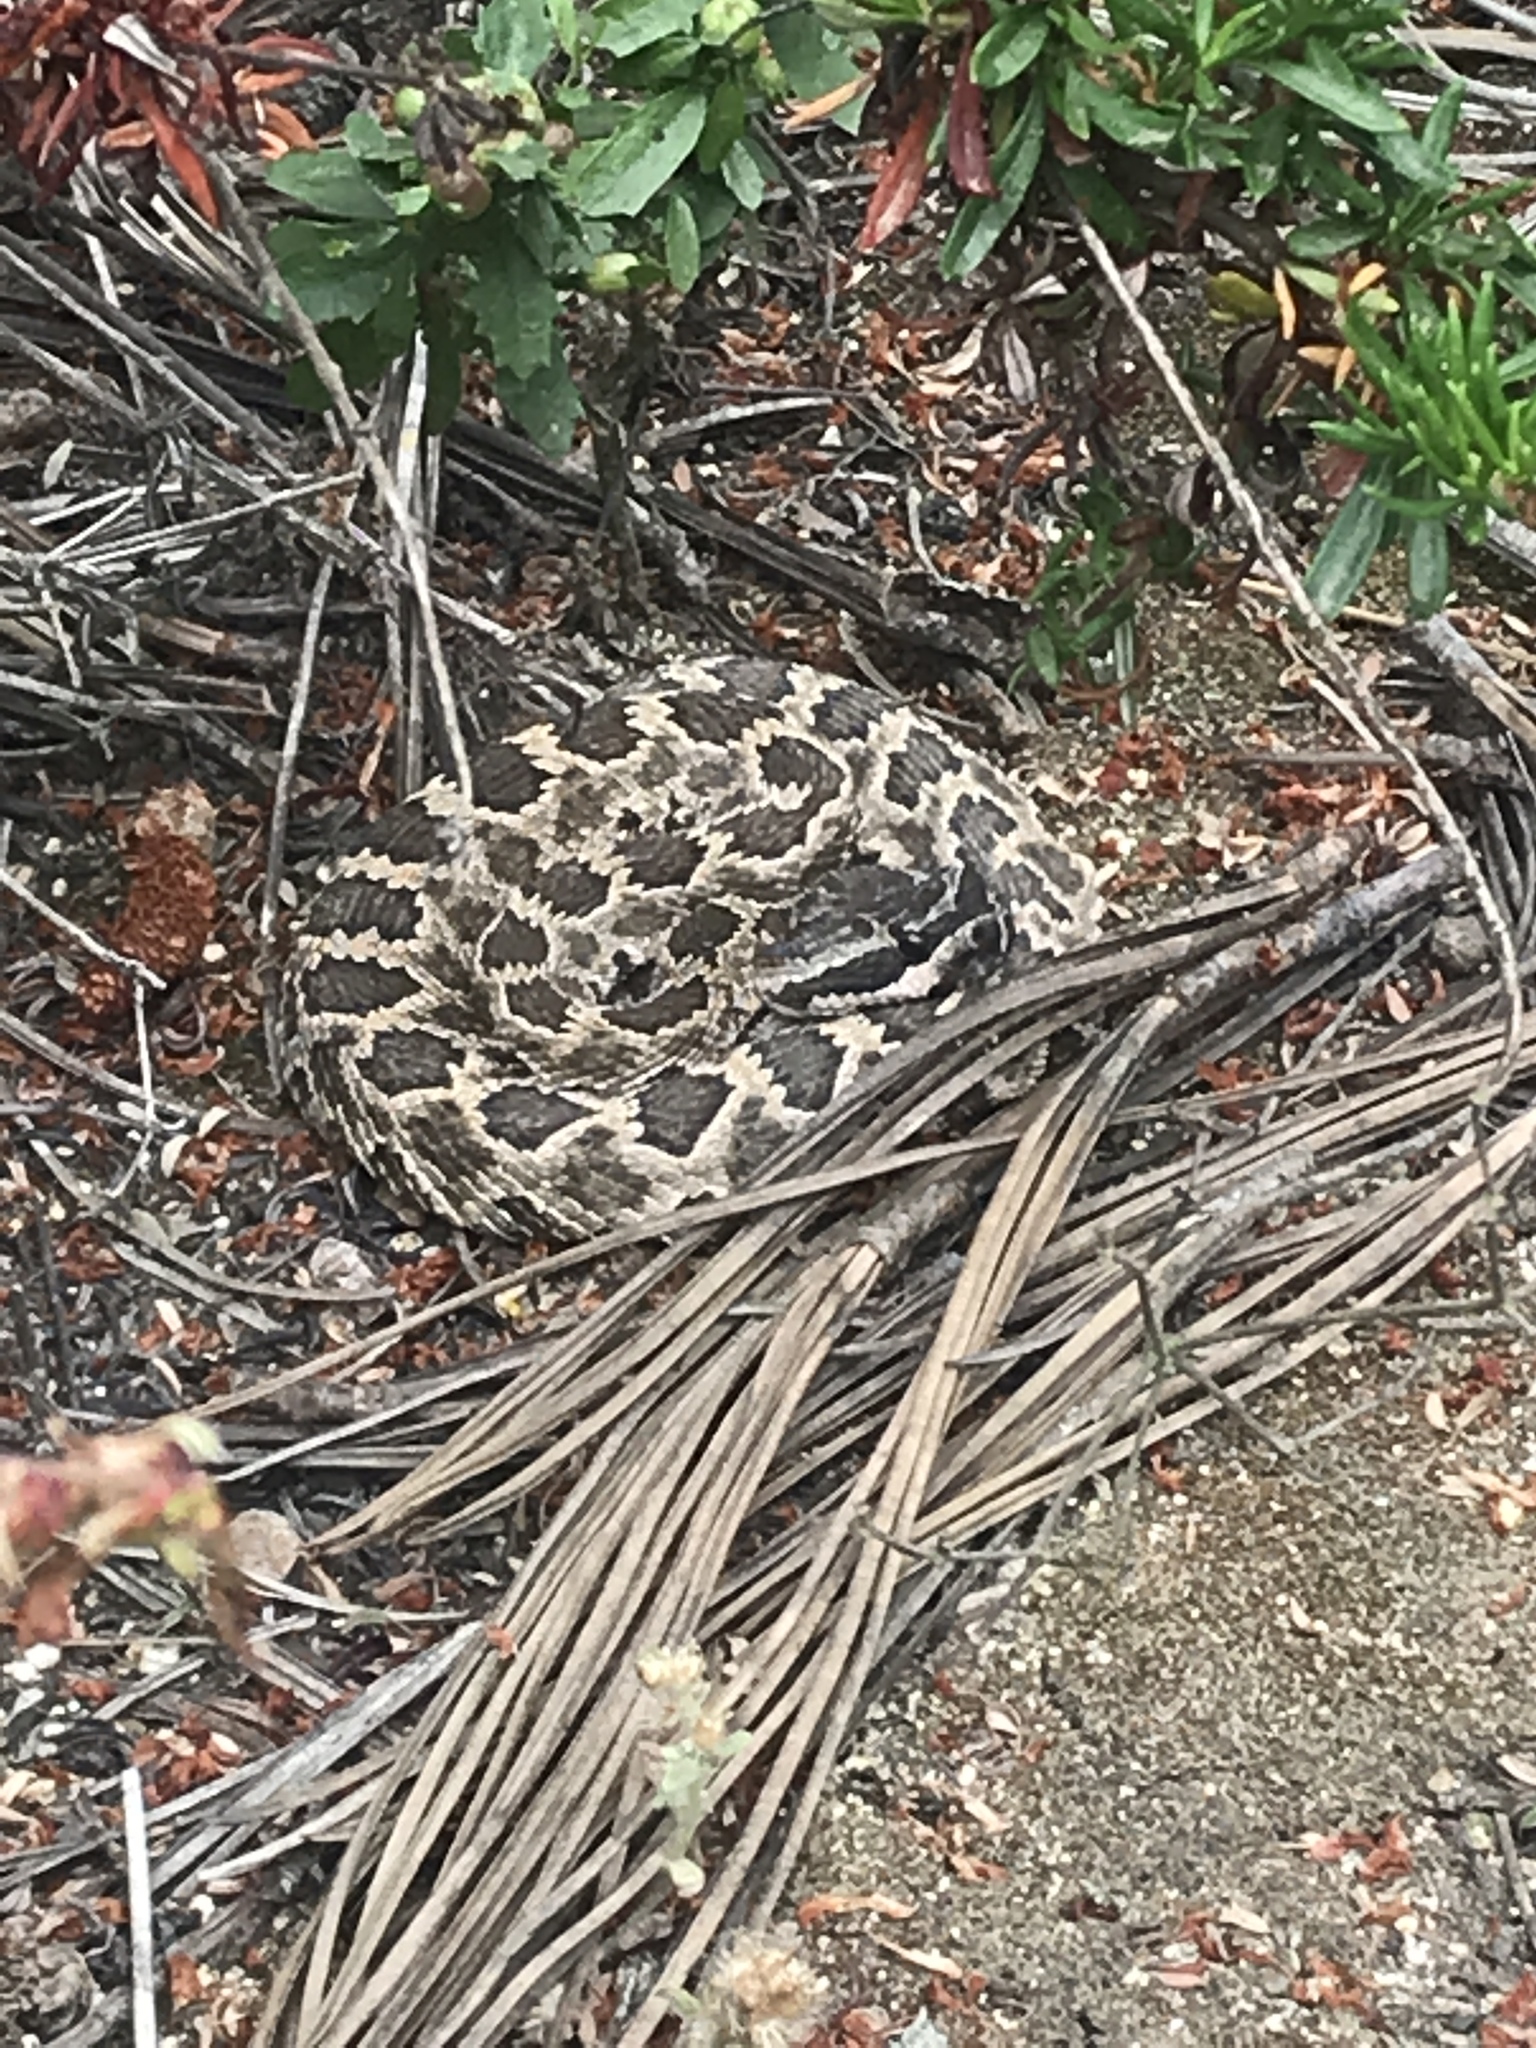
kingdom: Animalia
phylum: Chordata
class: Squamata
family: Viperidae
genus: Crotalus
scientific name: Crotalus oreganus
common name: Abyssus
